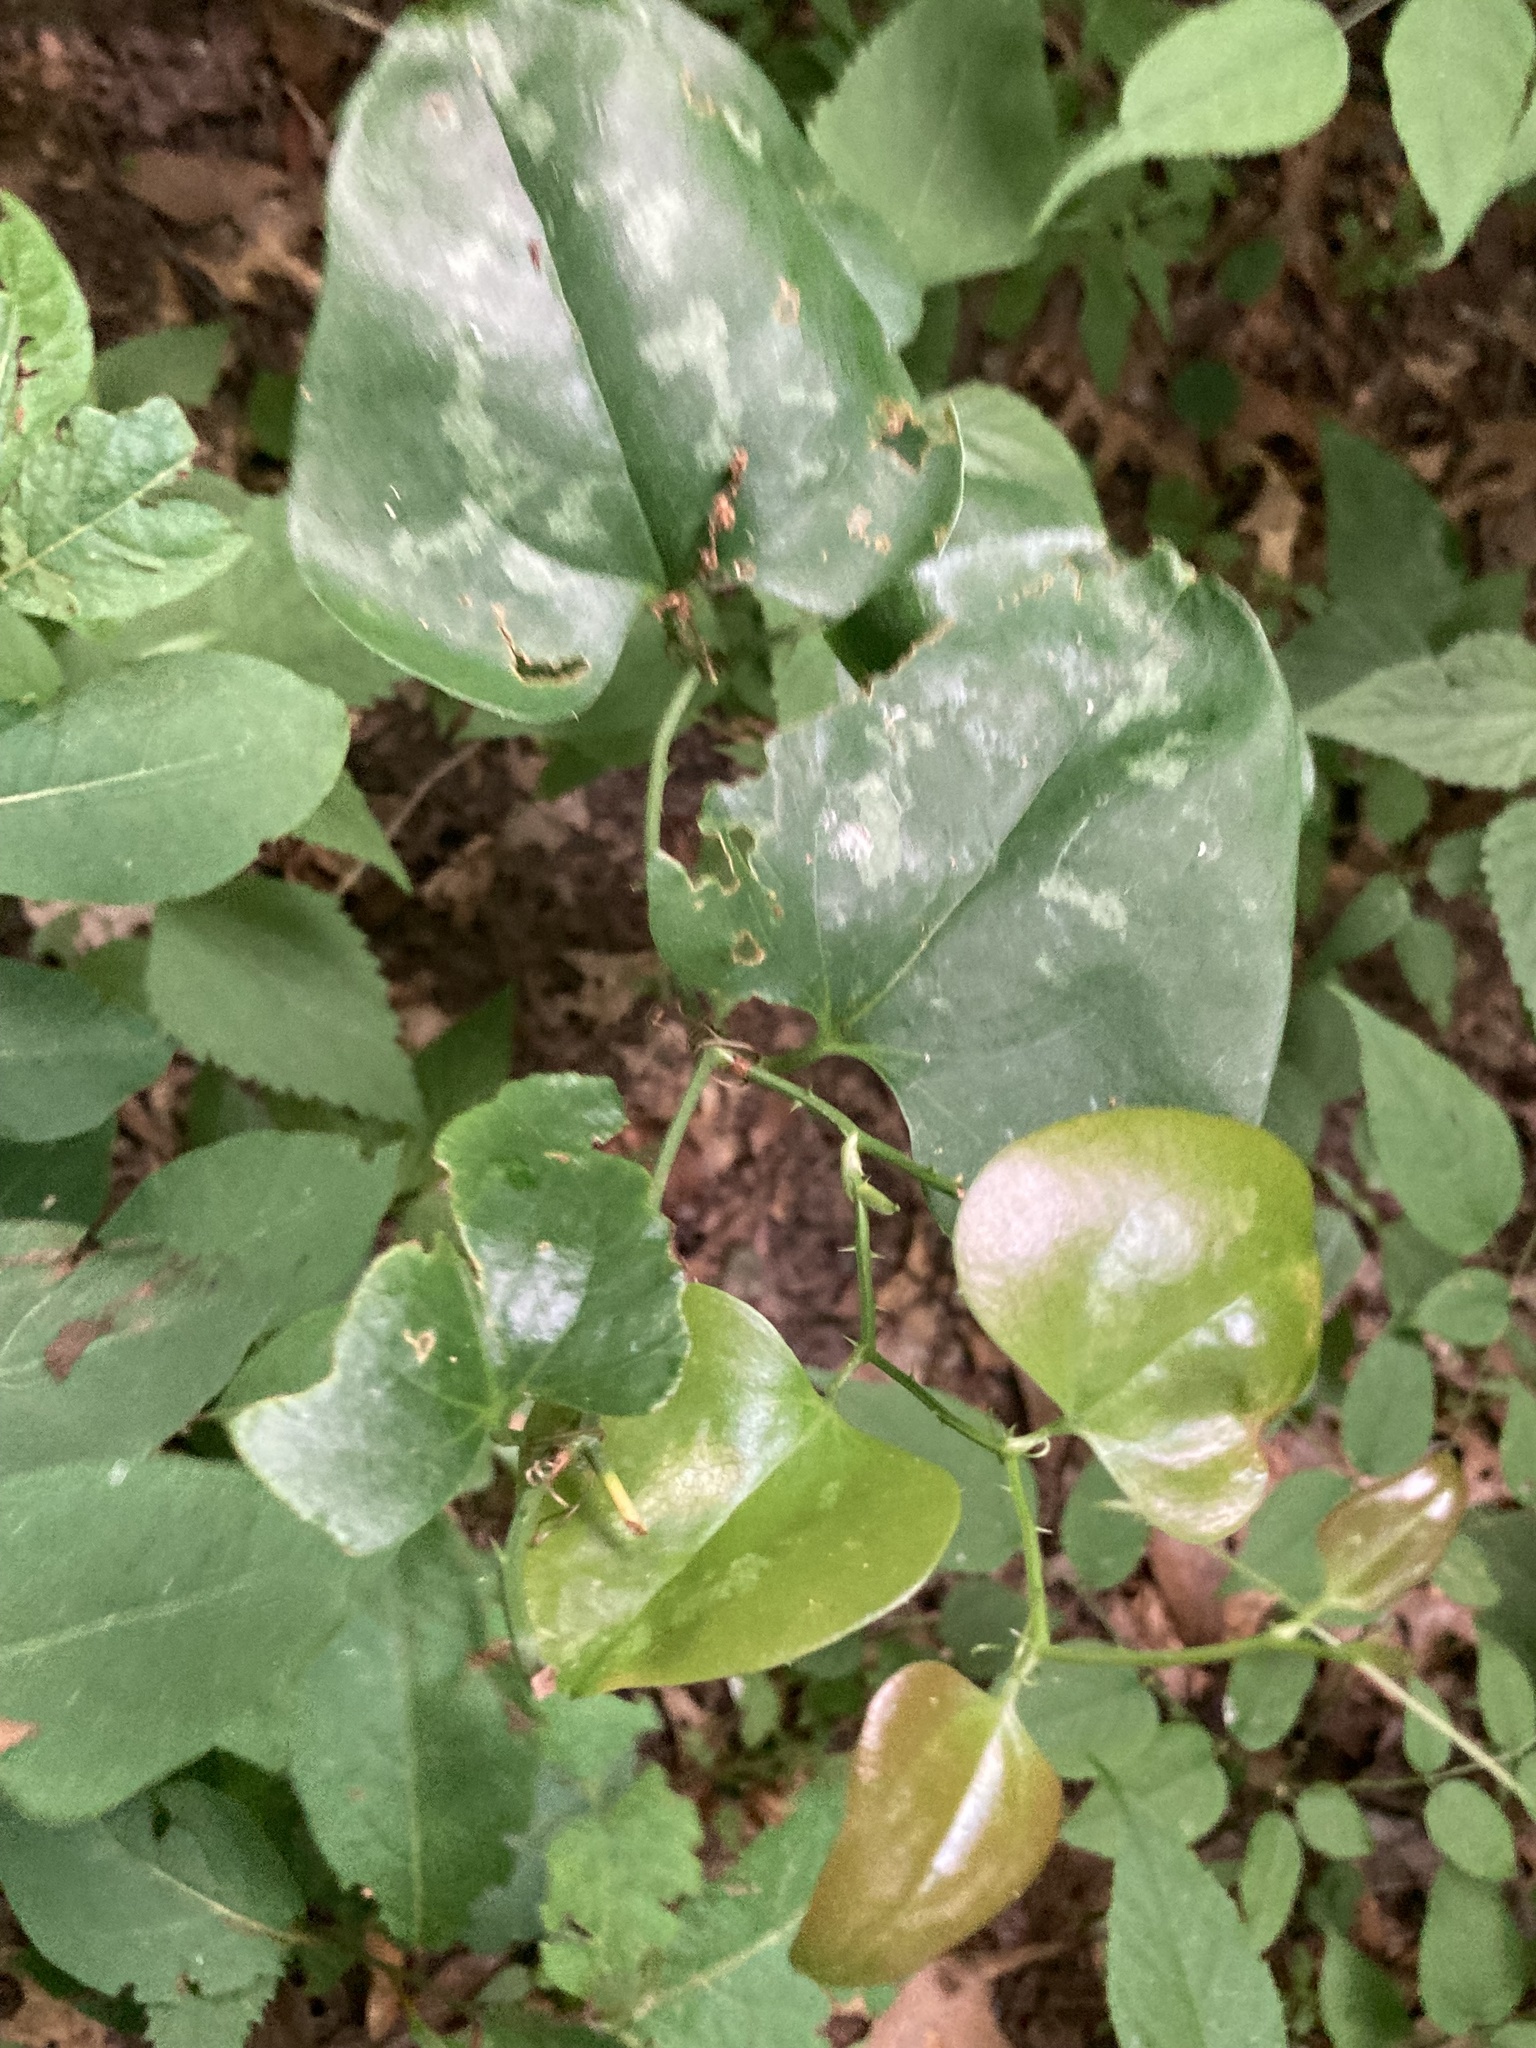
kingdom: Plantae
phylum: Tracheophyta
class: Liliopsida
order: Liliales
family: Smilacaceae
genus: Smilax
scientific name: Smilax bona-nox
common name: Catbrier
